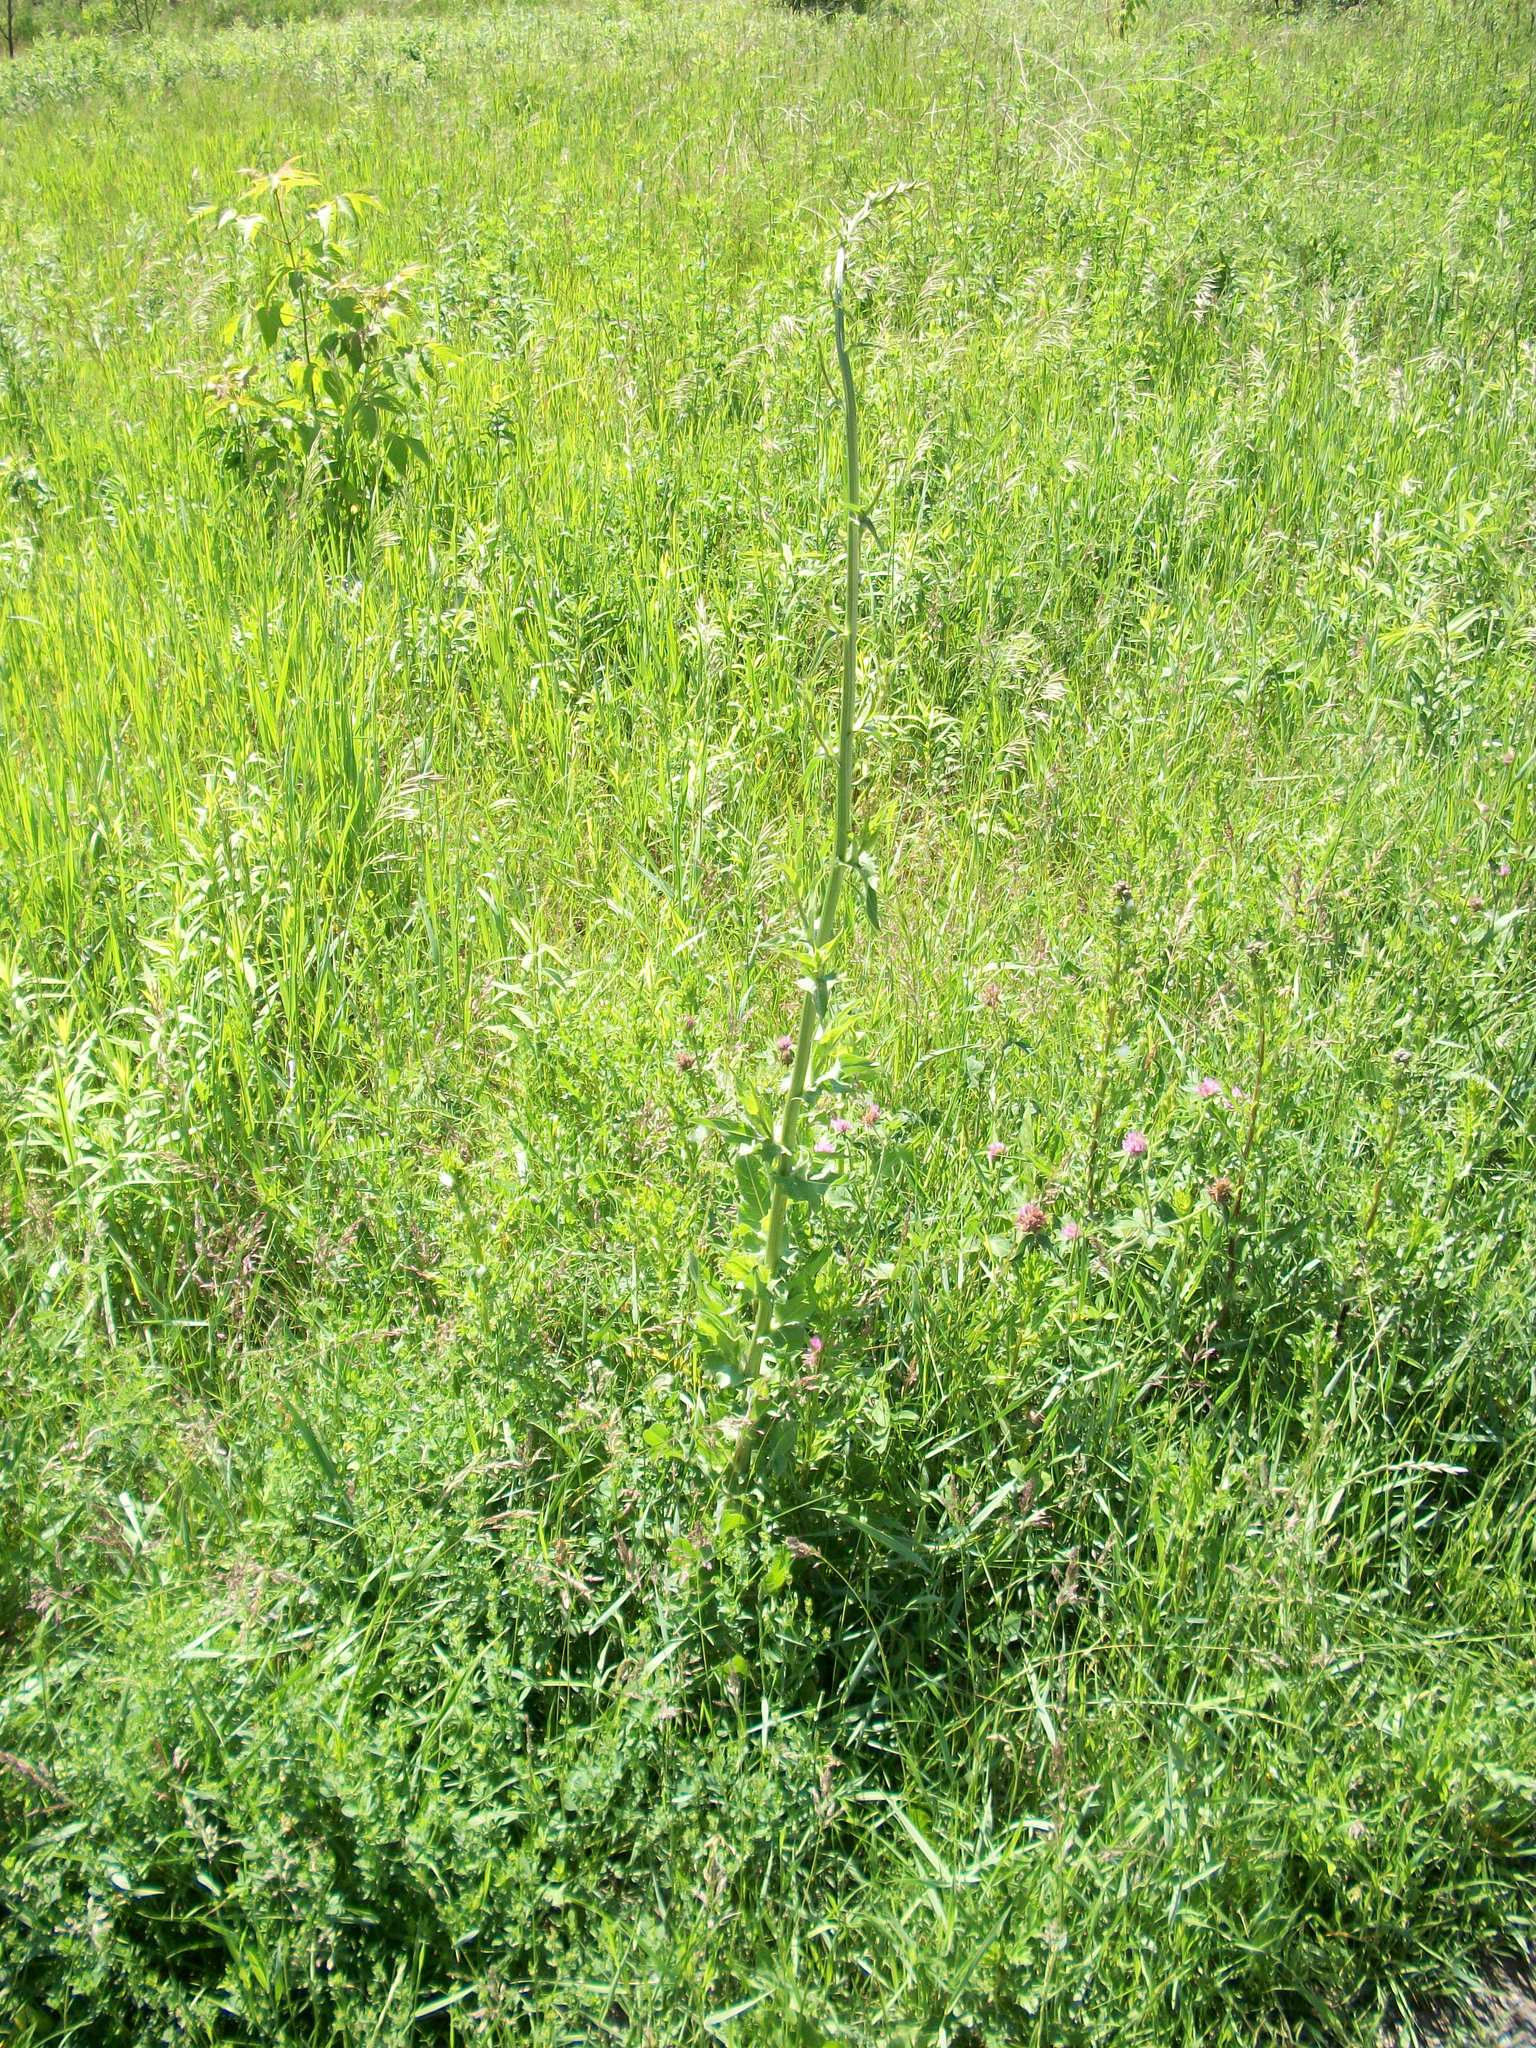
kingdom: Plantae
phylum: Tracheophyta
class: Magnoliopsida
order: Asterales
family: Asteraceae
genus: Lactuca
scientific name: Lactuca biennis
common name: Blue wood lettuce
